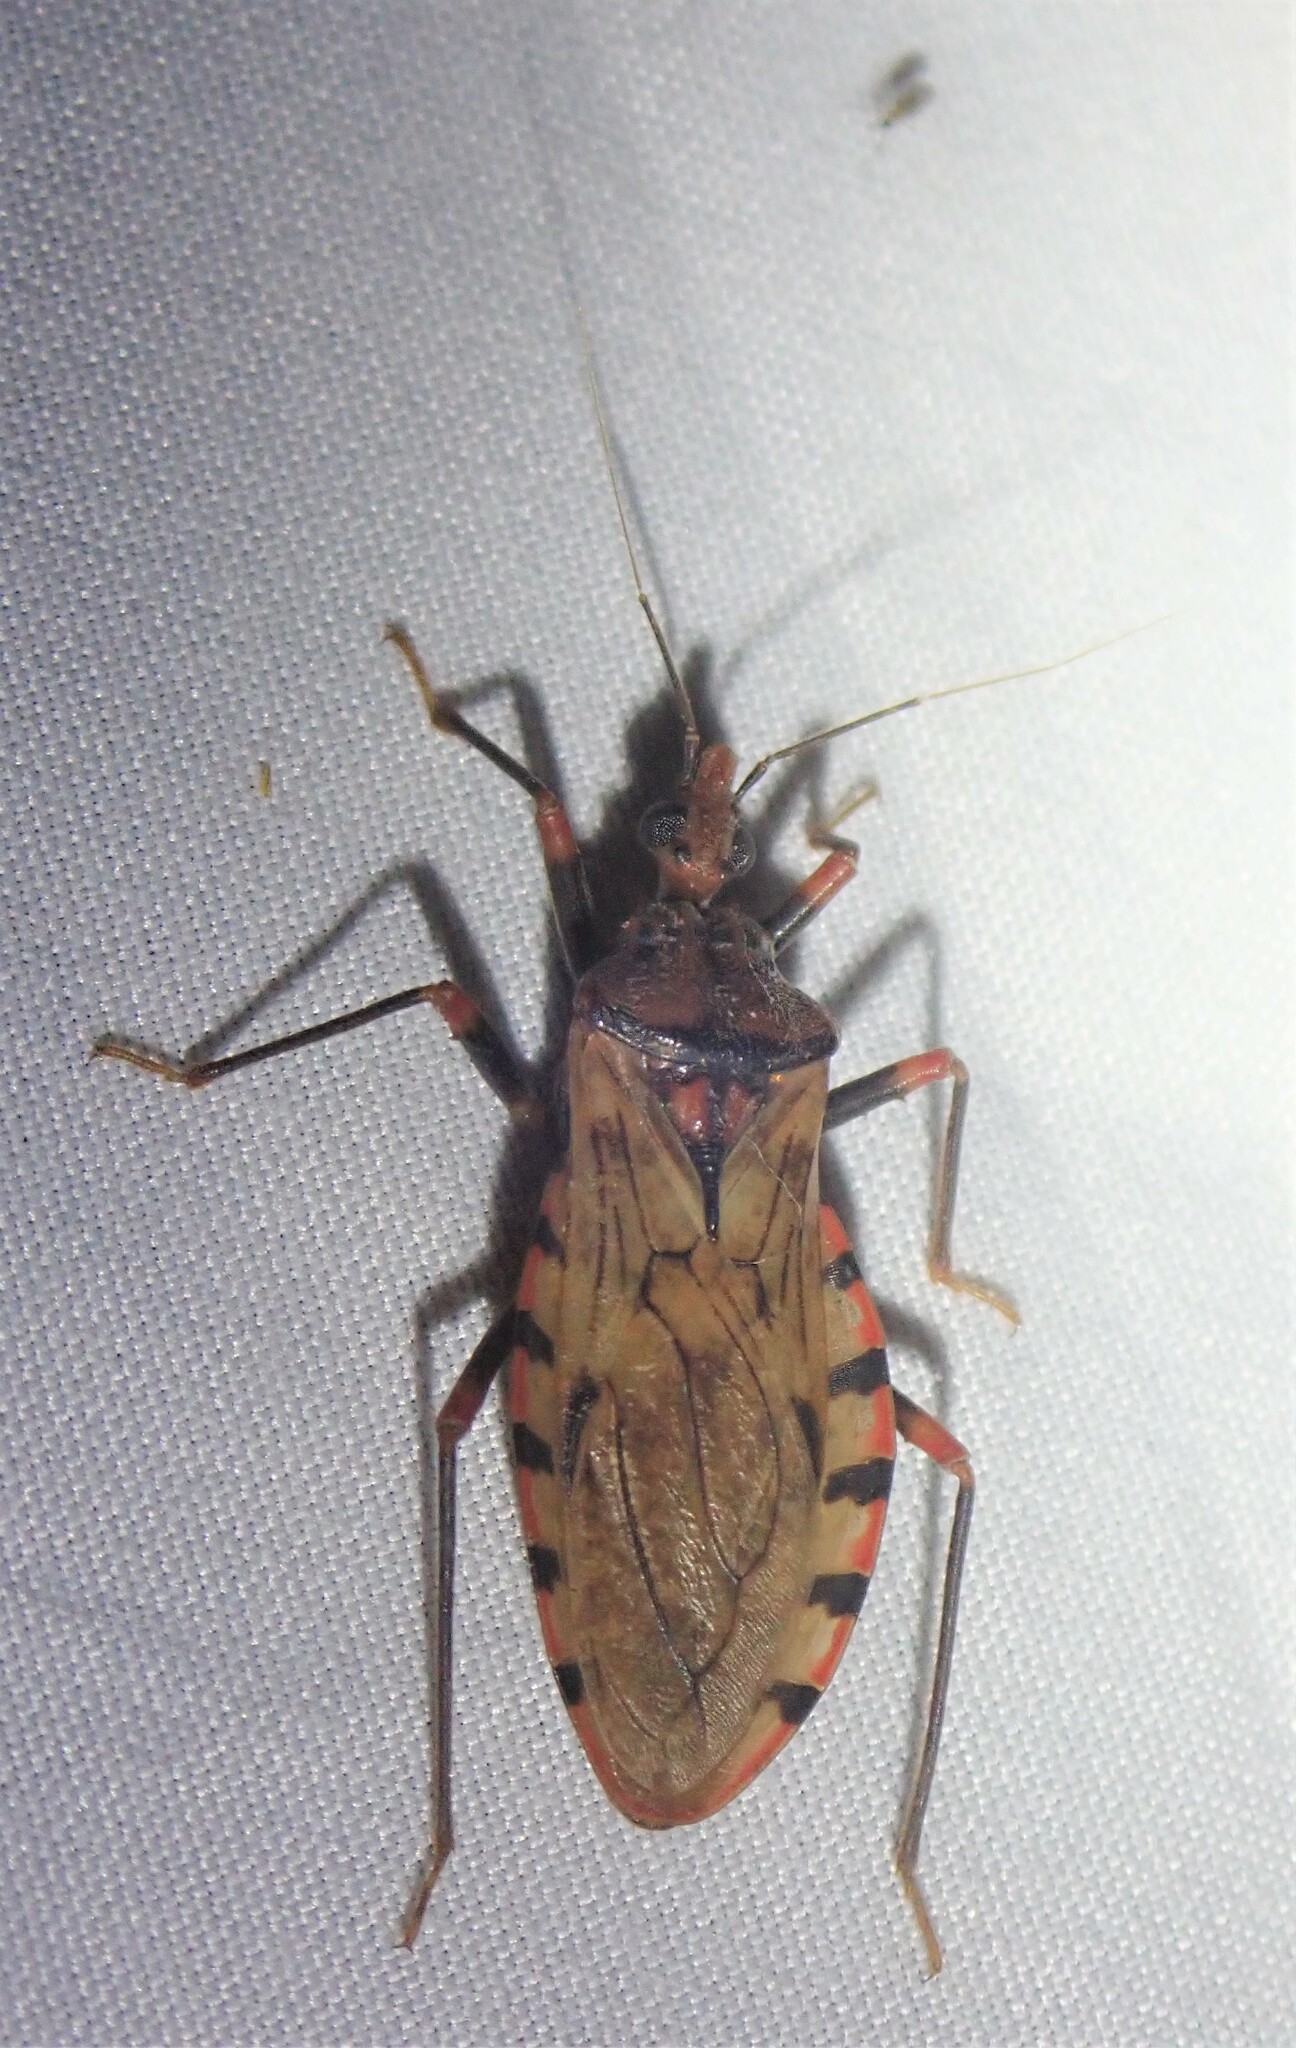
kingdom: Animalia
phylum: Arthropoda
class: Insecta
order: Hemiptera
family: Reduviidae
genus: Panstrongylus
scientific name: Panstrongylus geniculatus
